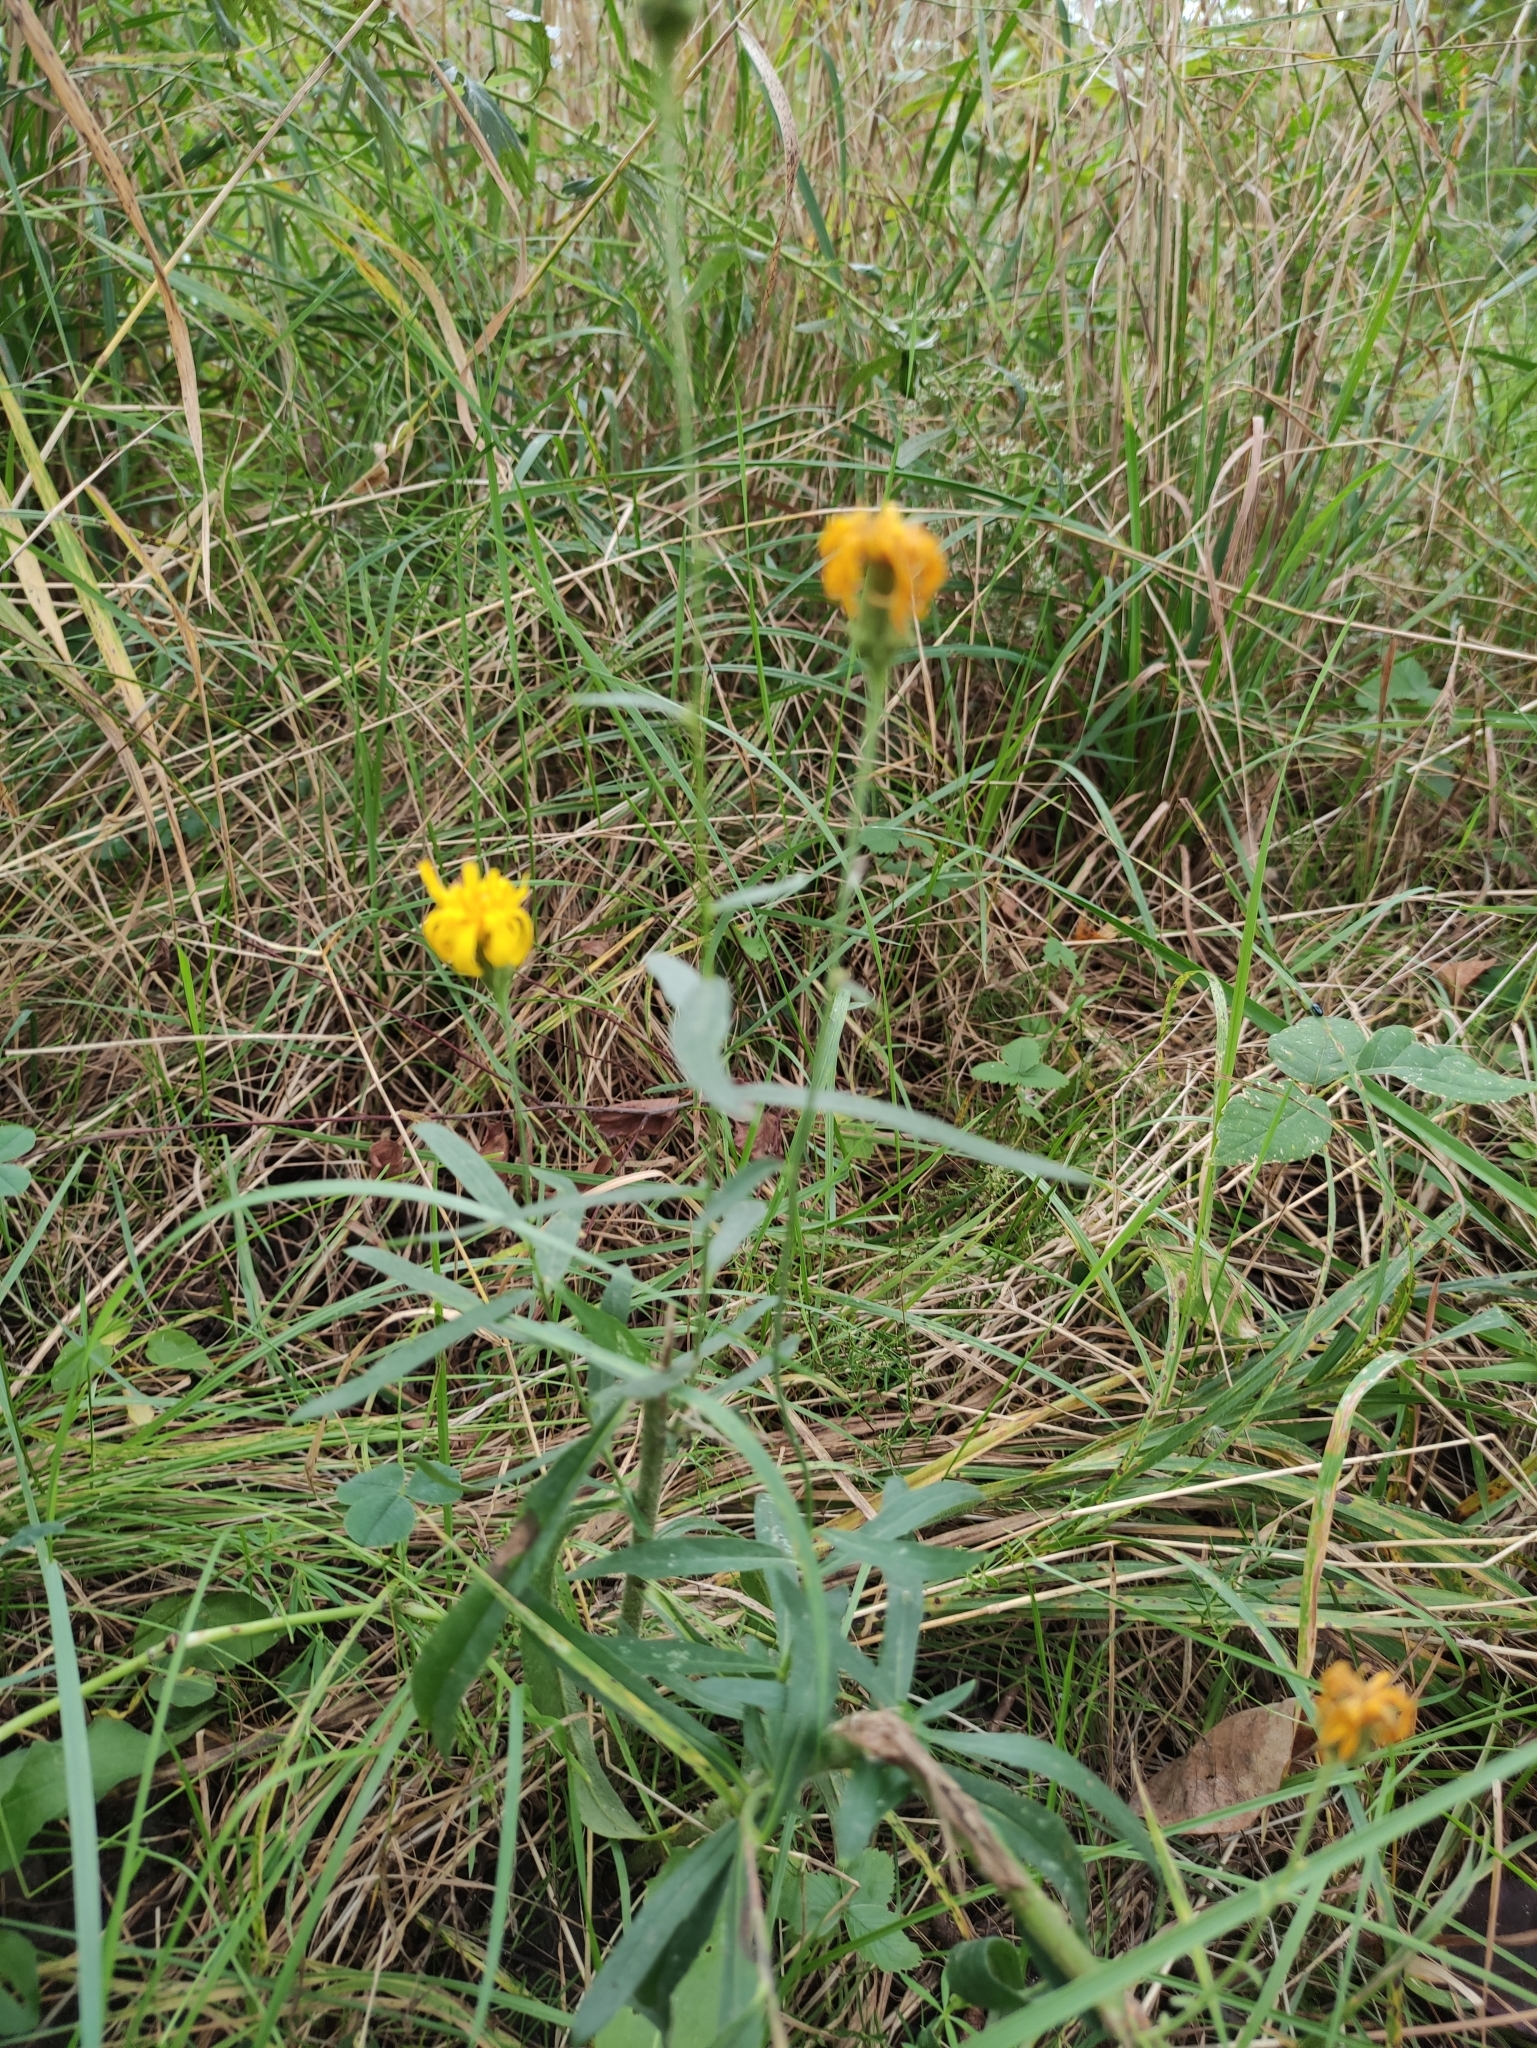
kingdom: Plantae
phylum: Tracheophyta
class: Magnoliopsida
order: Asterales
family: Asteraceae
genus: Hieracium
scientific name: Hieracium umbellatum
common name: Northern hawkweed
